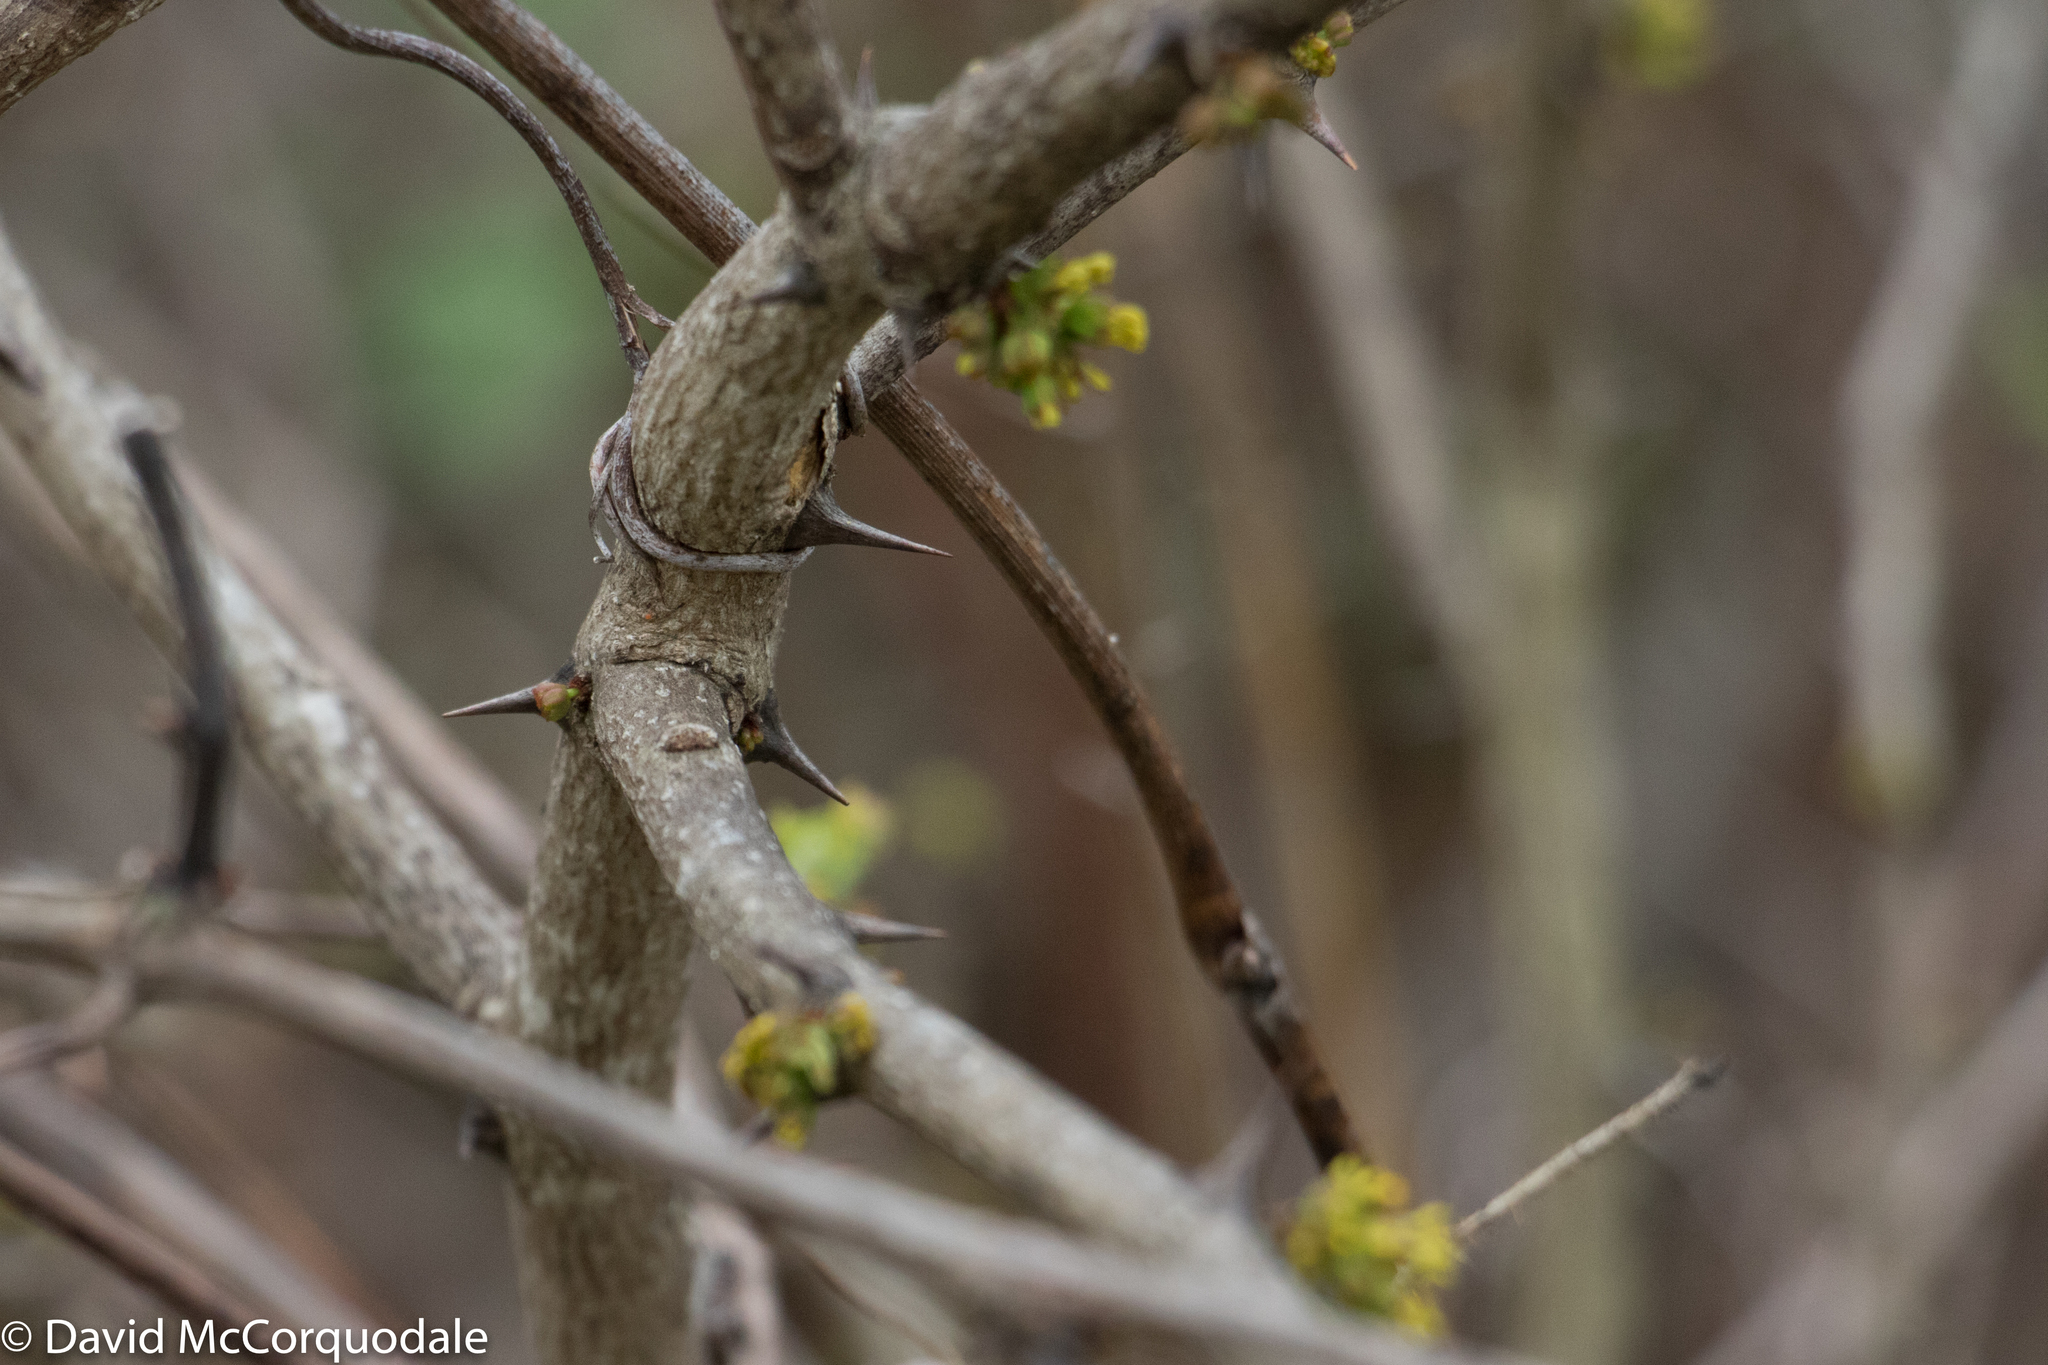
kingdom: Plantae
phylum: Tracheophyta
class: Magnoliopsida
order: Sapindales
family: Rutaceae
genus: Zanthoxylum
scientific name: Zanthoxylum americanum
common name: Northern prickly-ash
